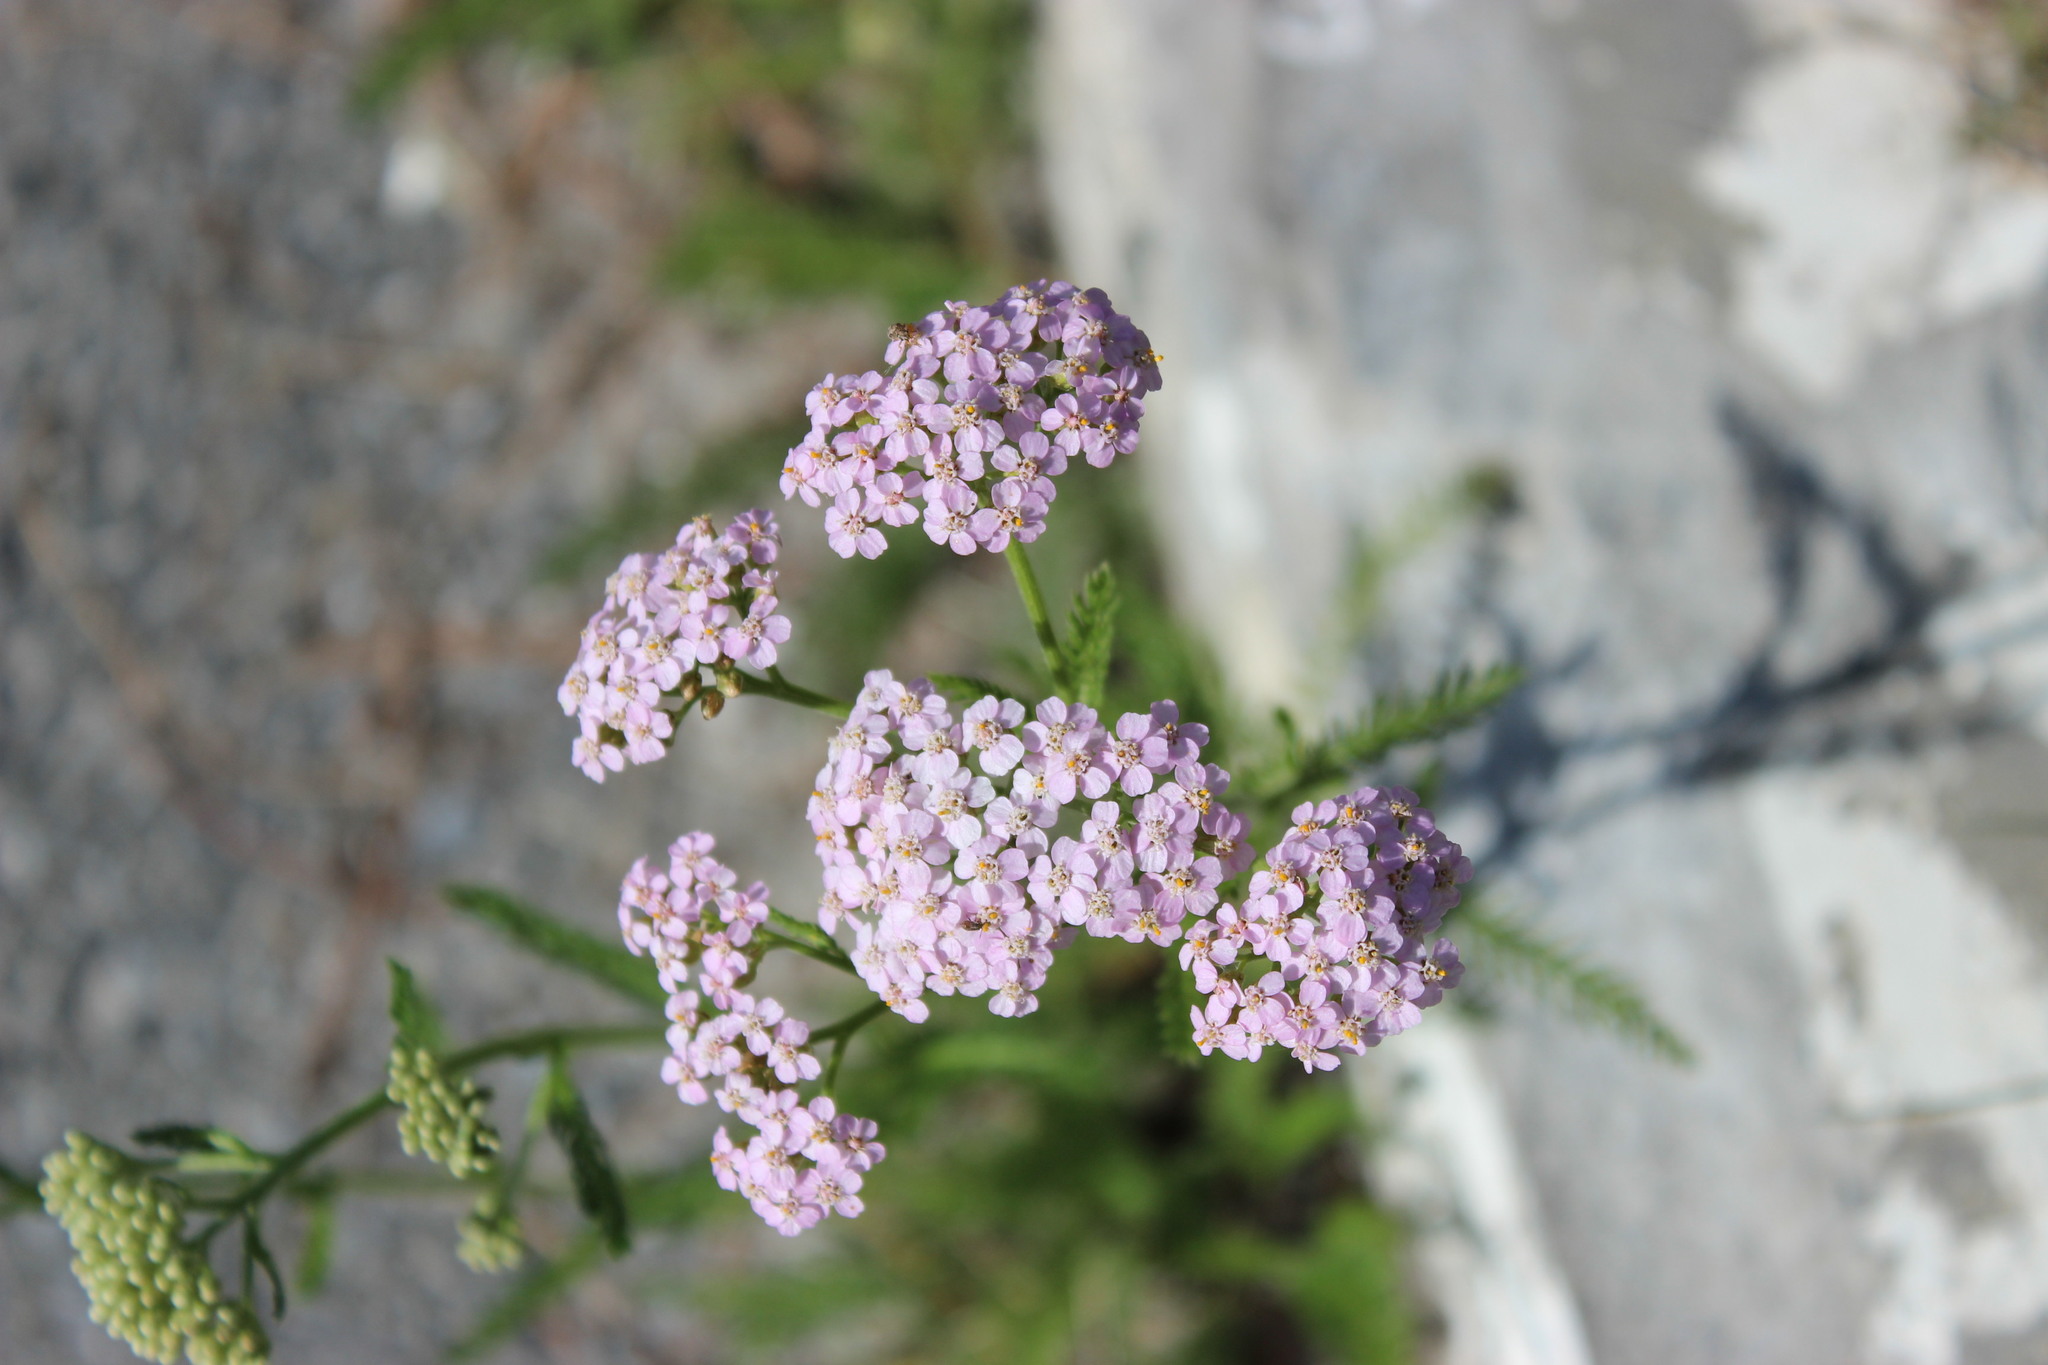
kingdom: Plantae
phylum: Tracheophyta
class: Magnoliopsida
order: Asterales
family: Asteraceae
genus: Achillea
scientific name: Achillea millefolium
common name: Yarrow
